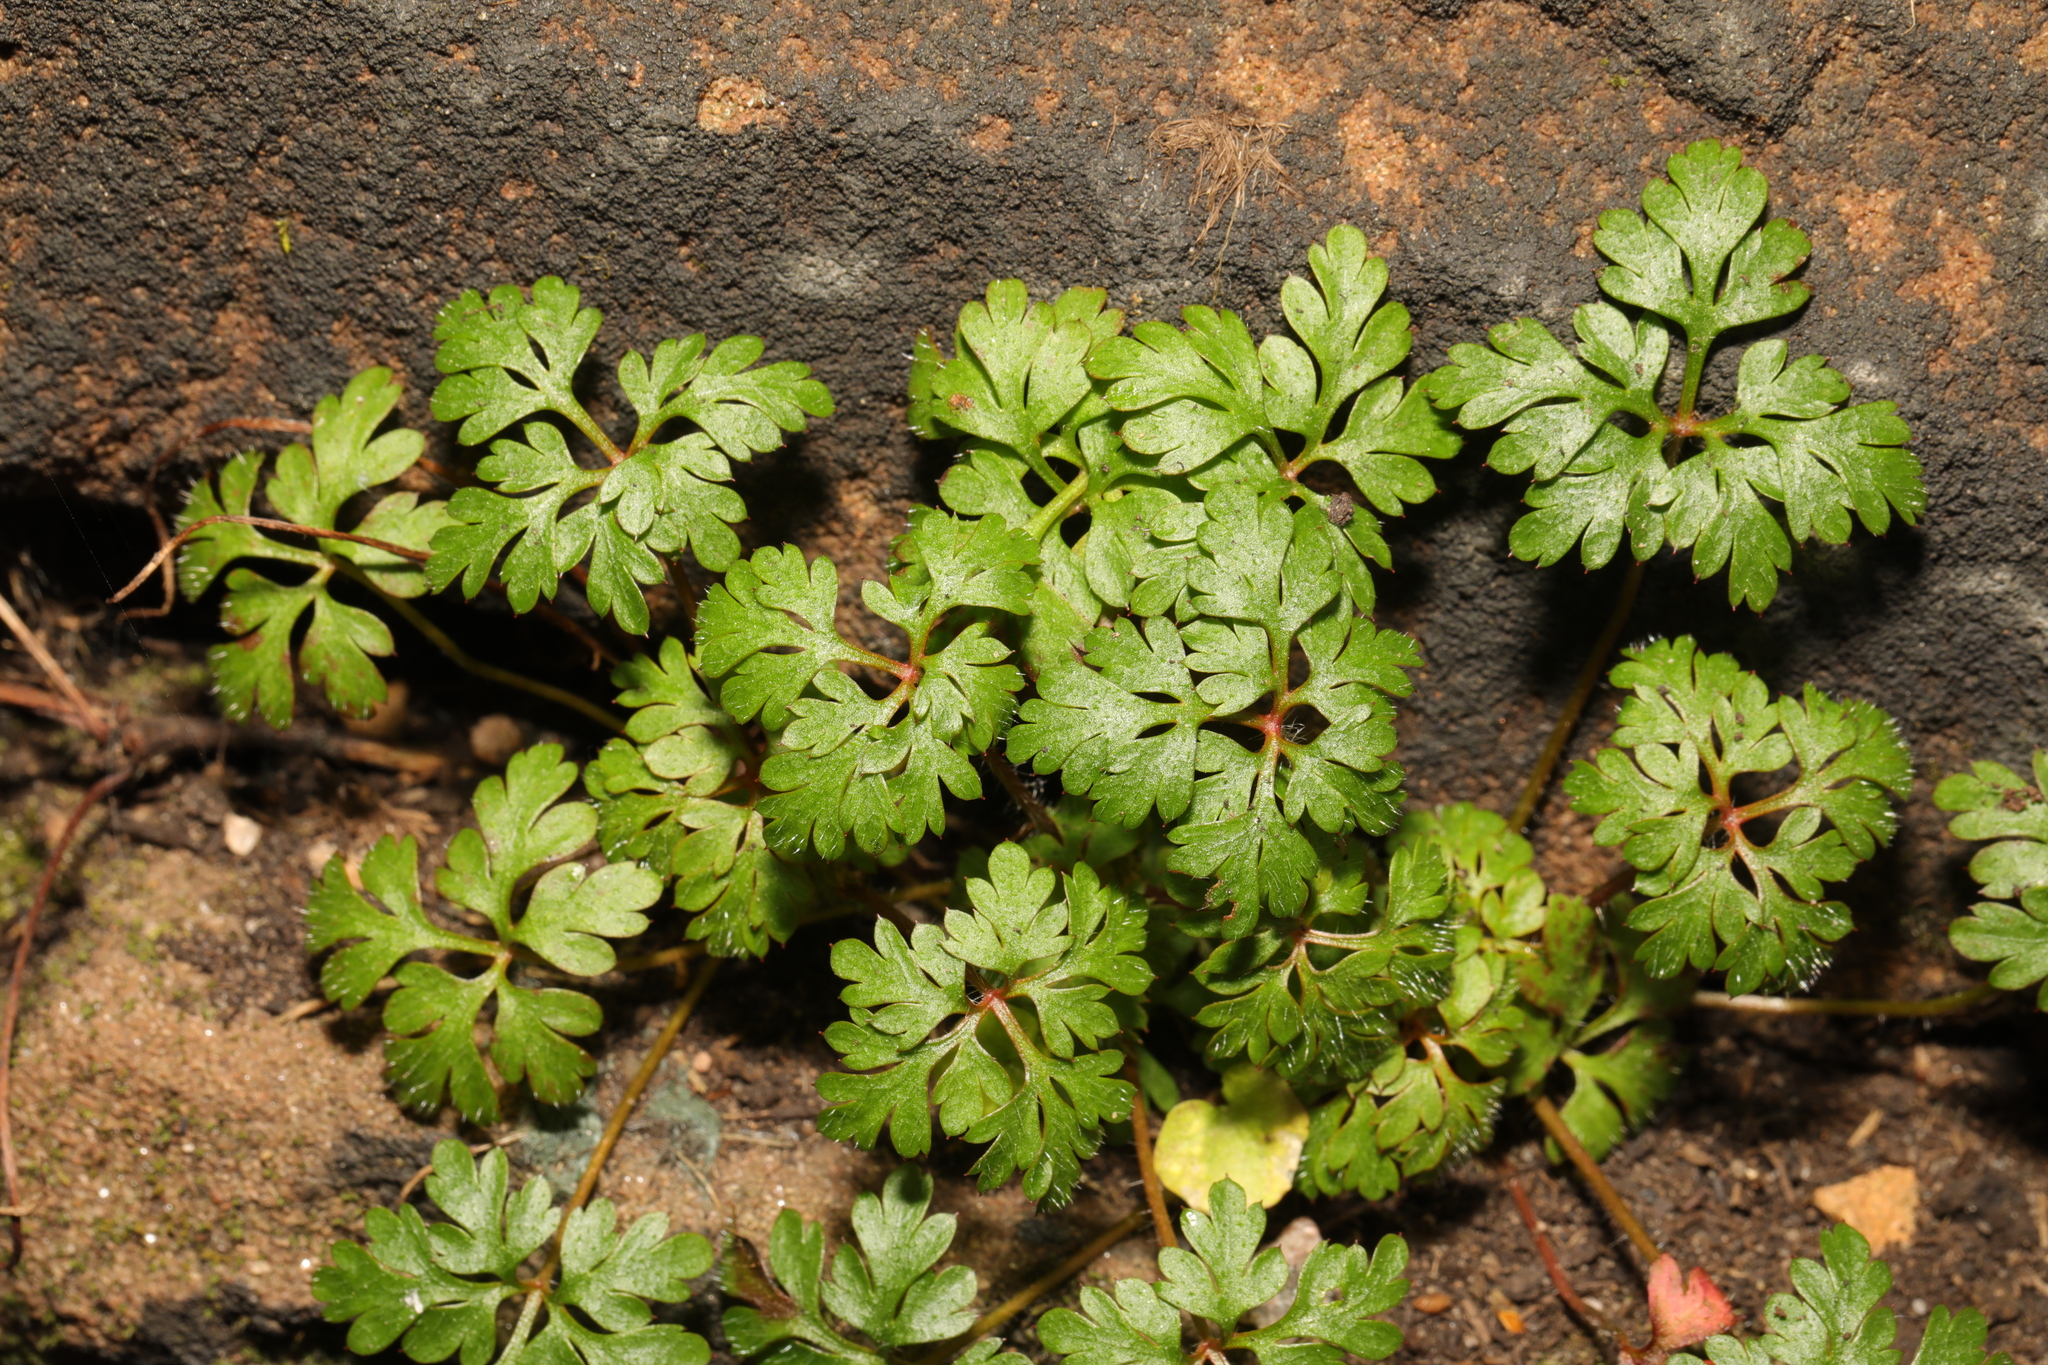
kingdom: Plantae
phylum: Tracheophyta
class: Magnoliopsida
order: Geraniales
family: Geraniaceae
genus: Geranium
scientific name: Geranium robertianum
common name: Herb-robert
